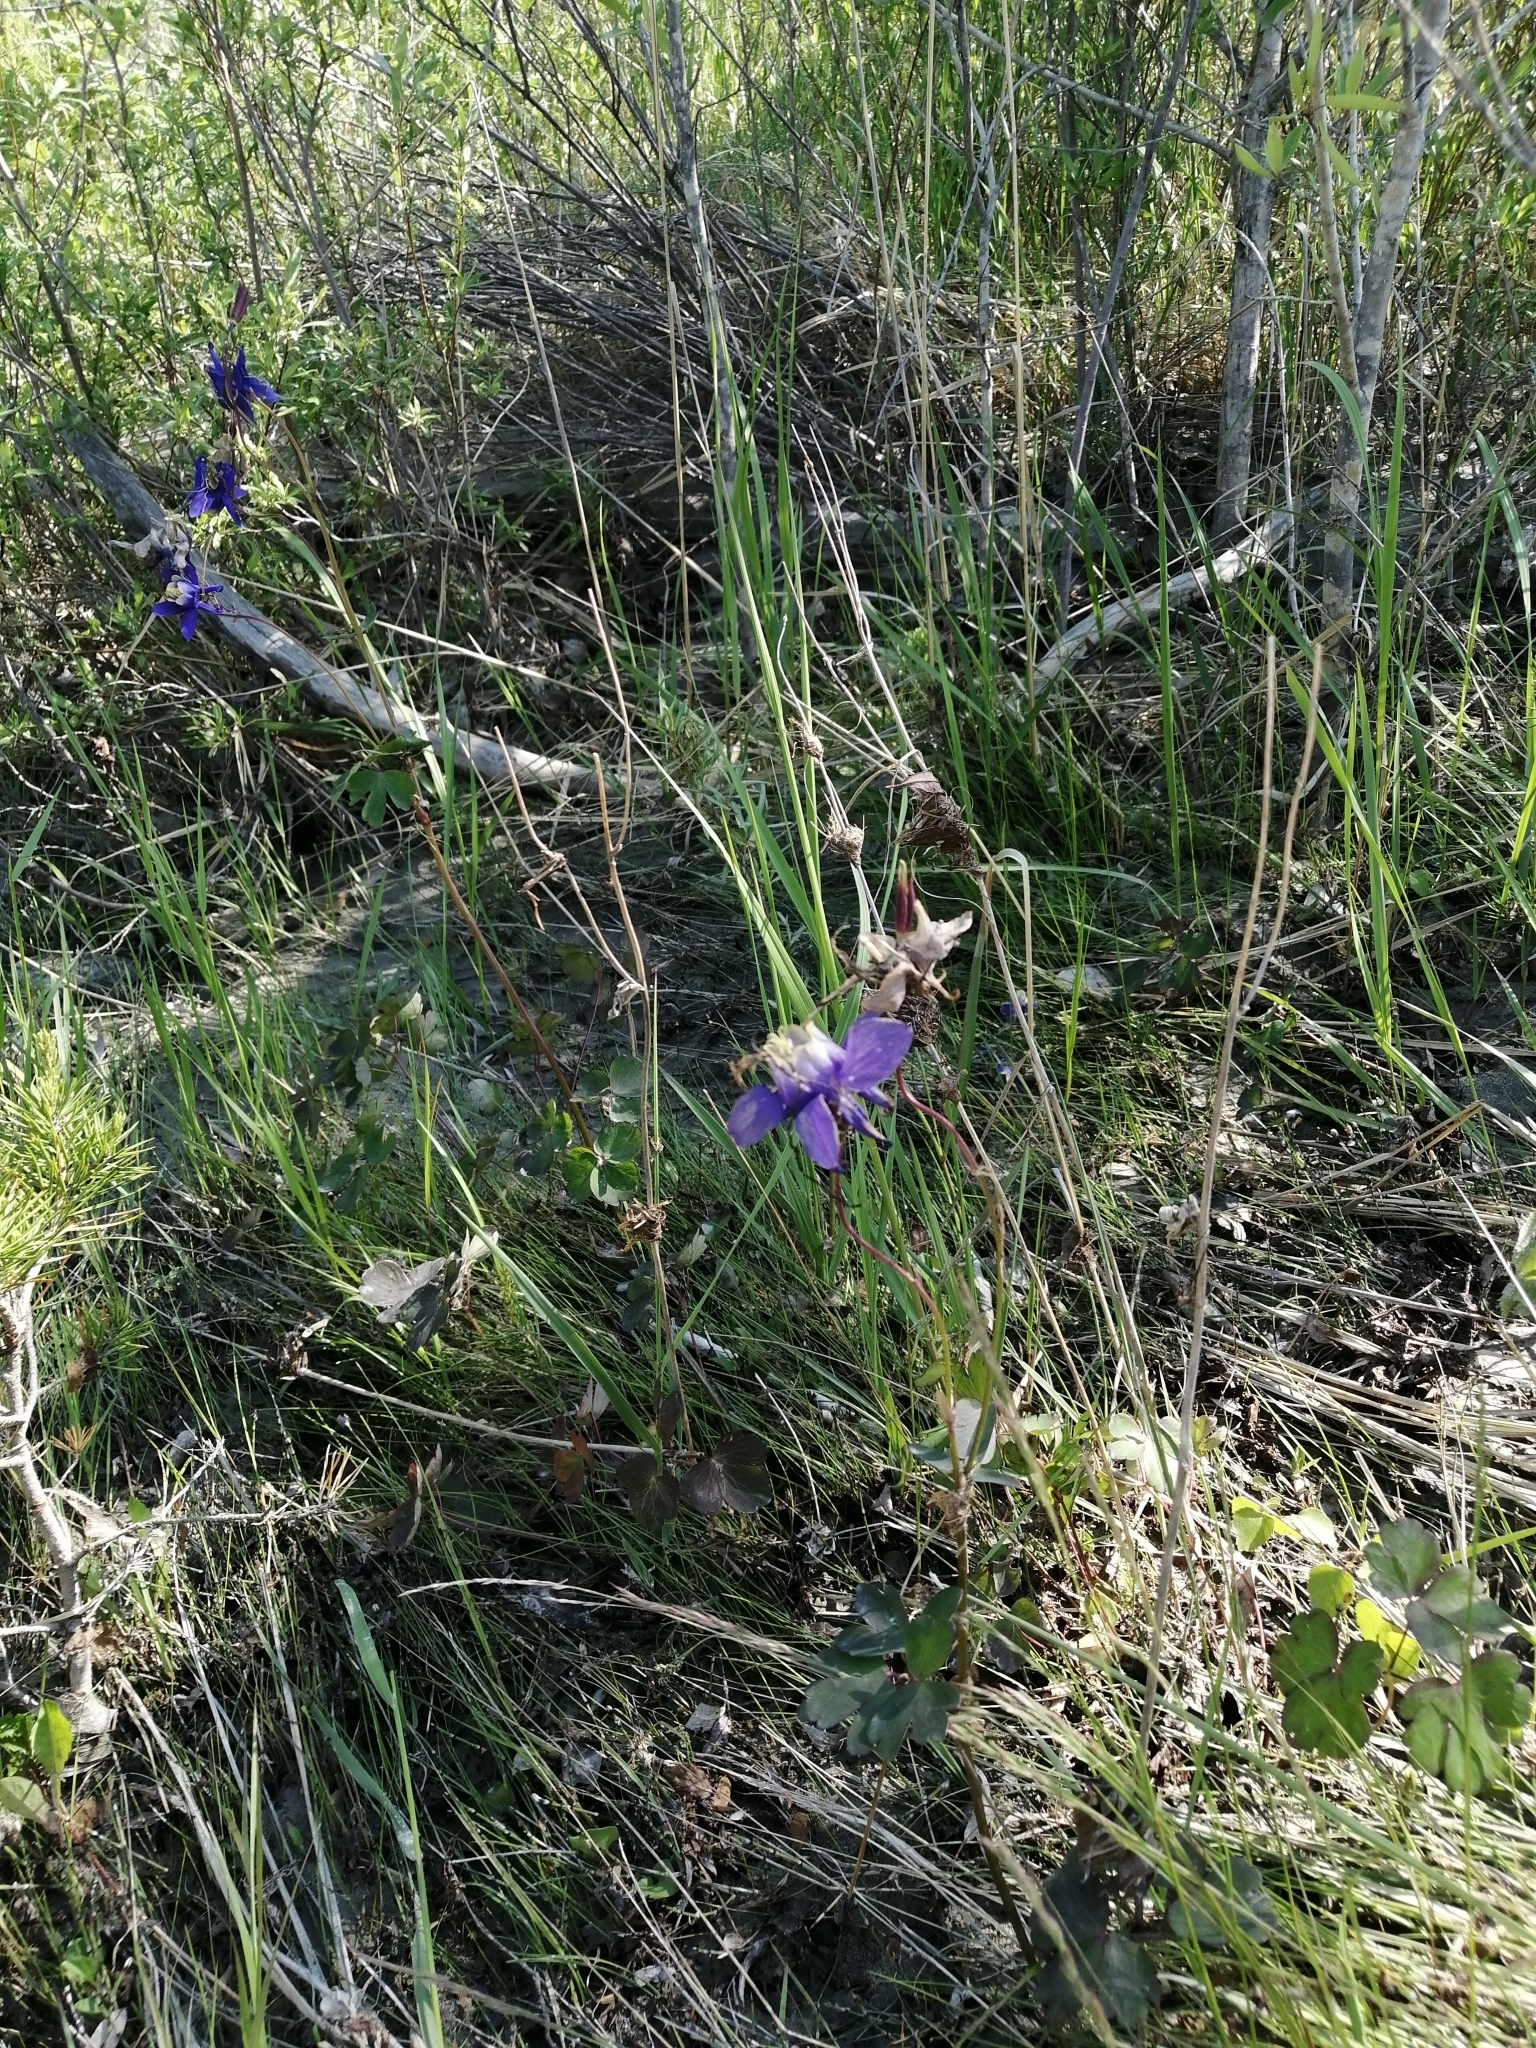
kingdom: Plantae
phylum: Tracheophyta
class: Magnoliopsida
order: Ranunculales
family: Ranunculaceae
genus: Aquilegia
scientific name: Aquilegia sibirica
